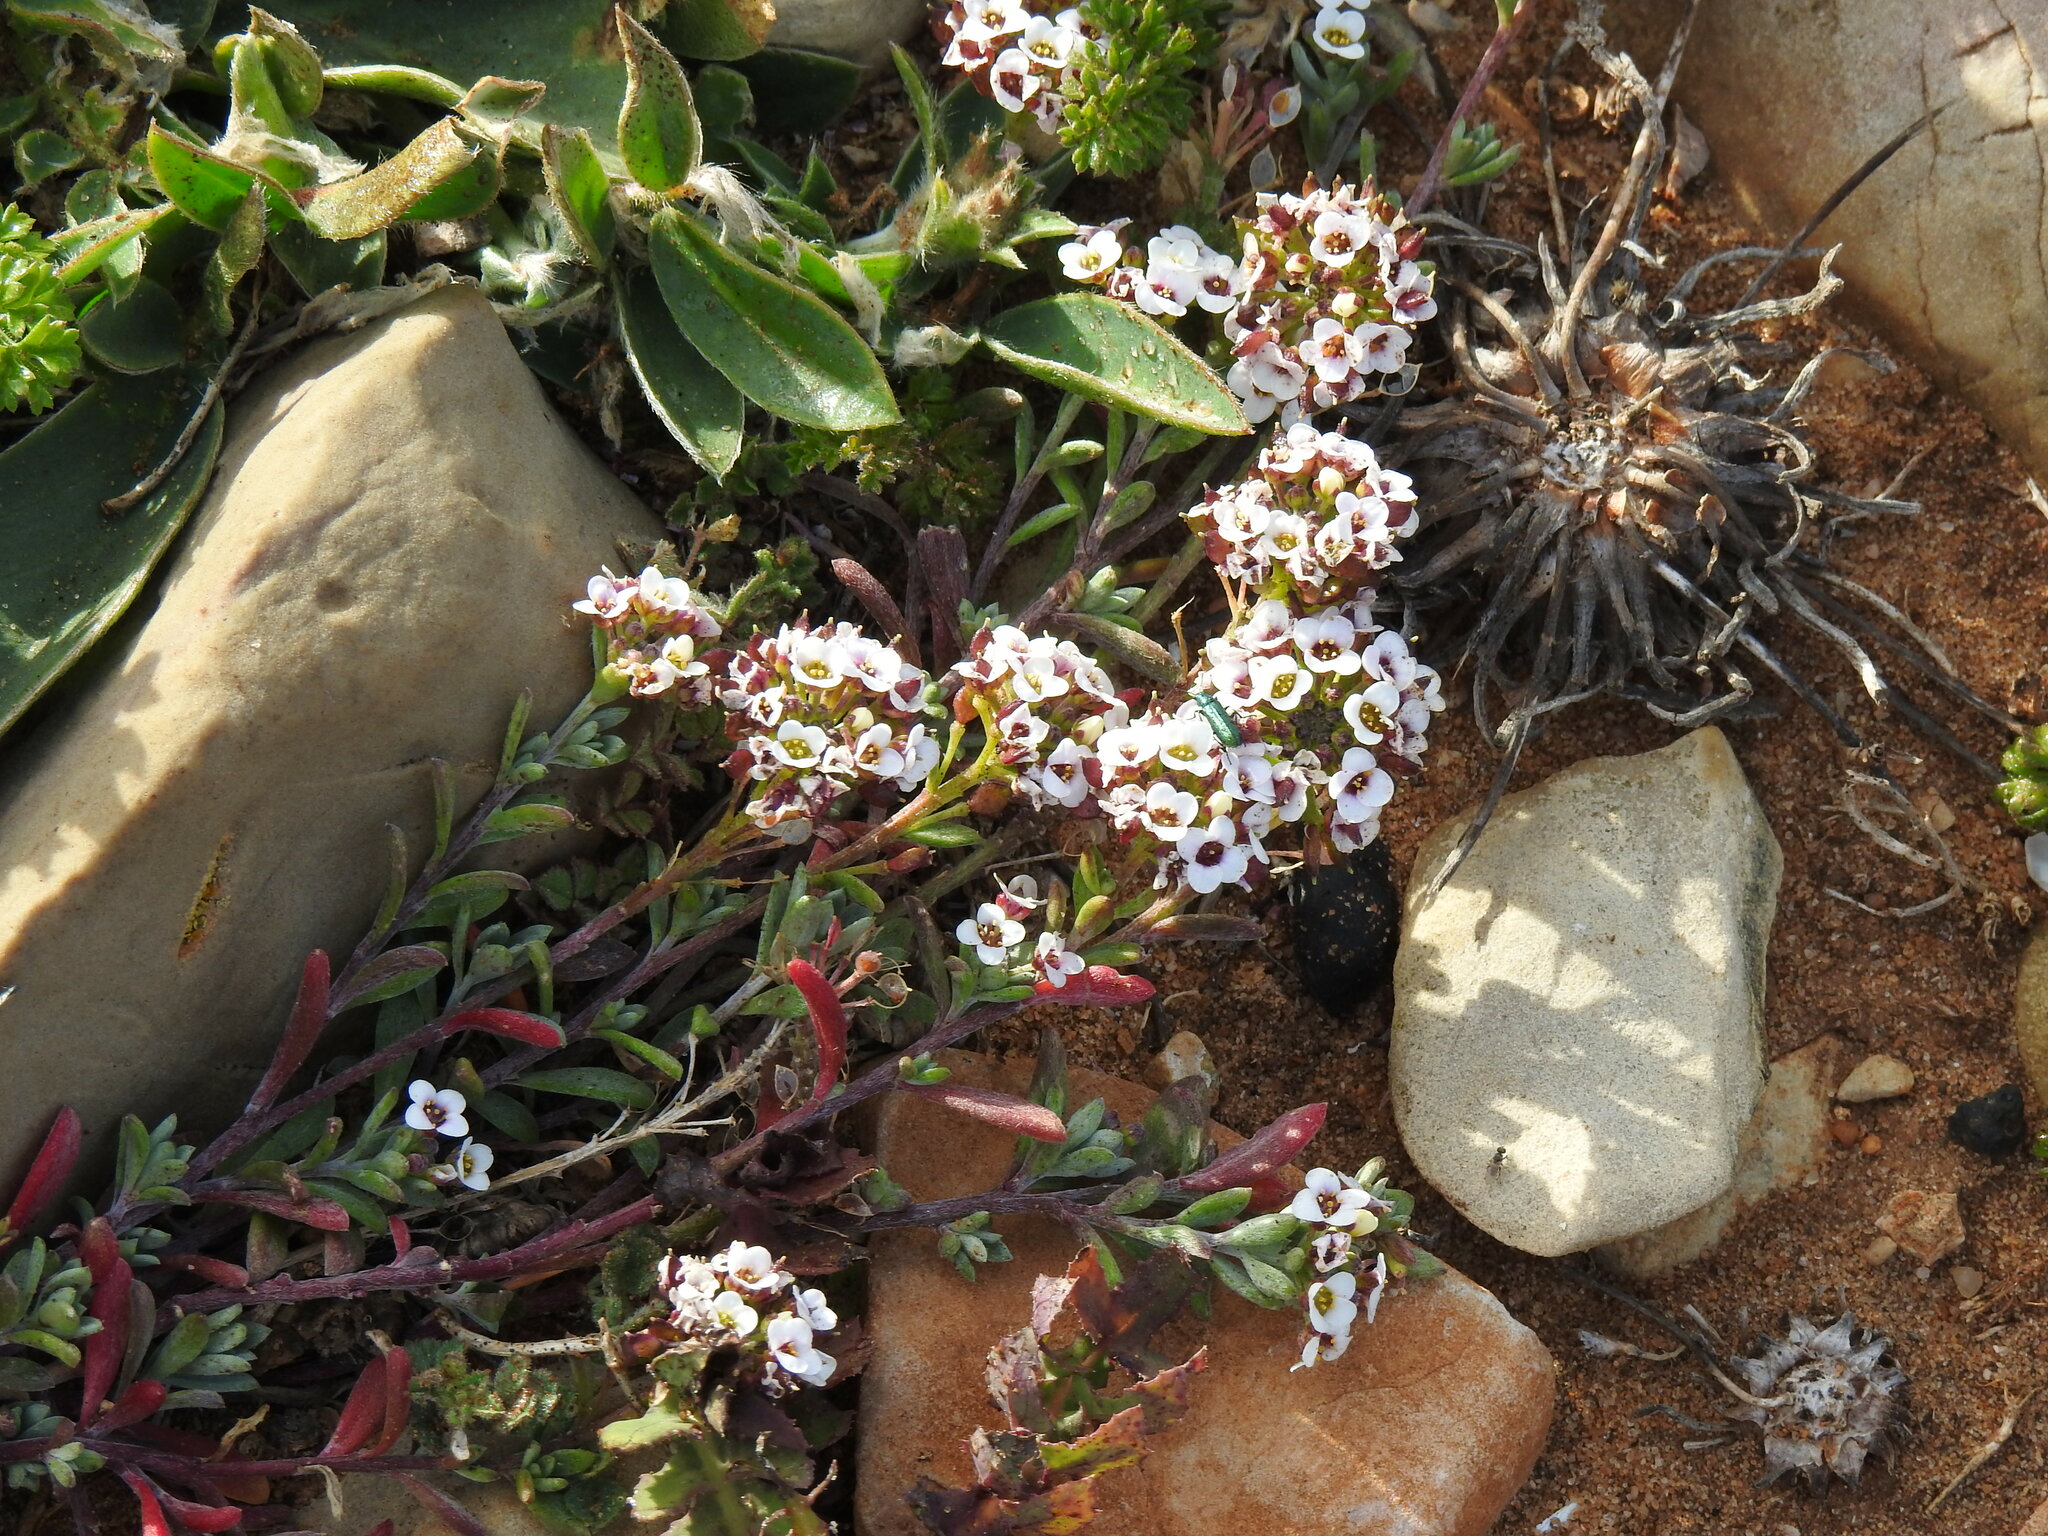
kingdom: Plantae
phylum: Tracheophyta
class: Magnoliopsida
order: Brassicales
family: Brassicaceae
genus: Lobularia
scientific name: Lobularia maritima
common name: Sweet alison
